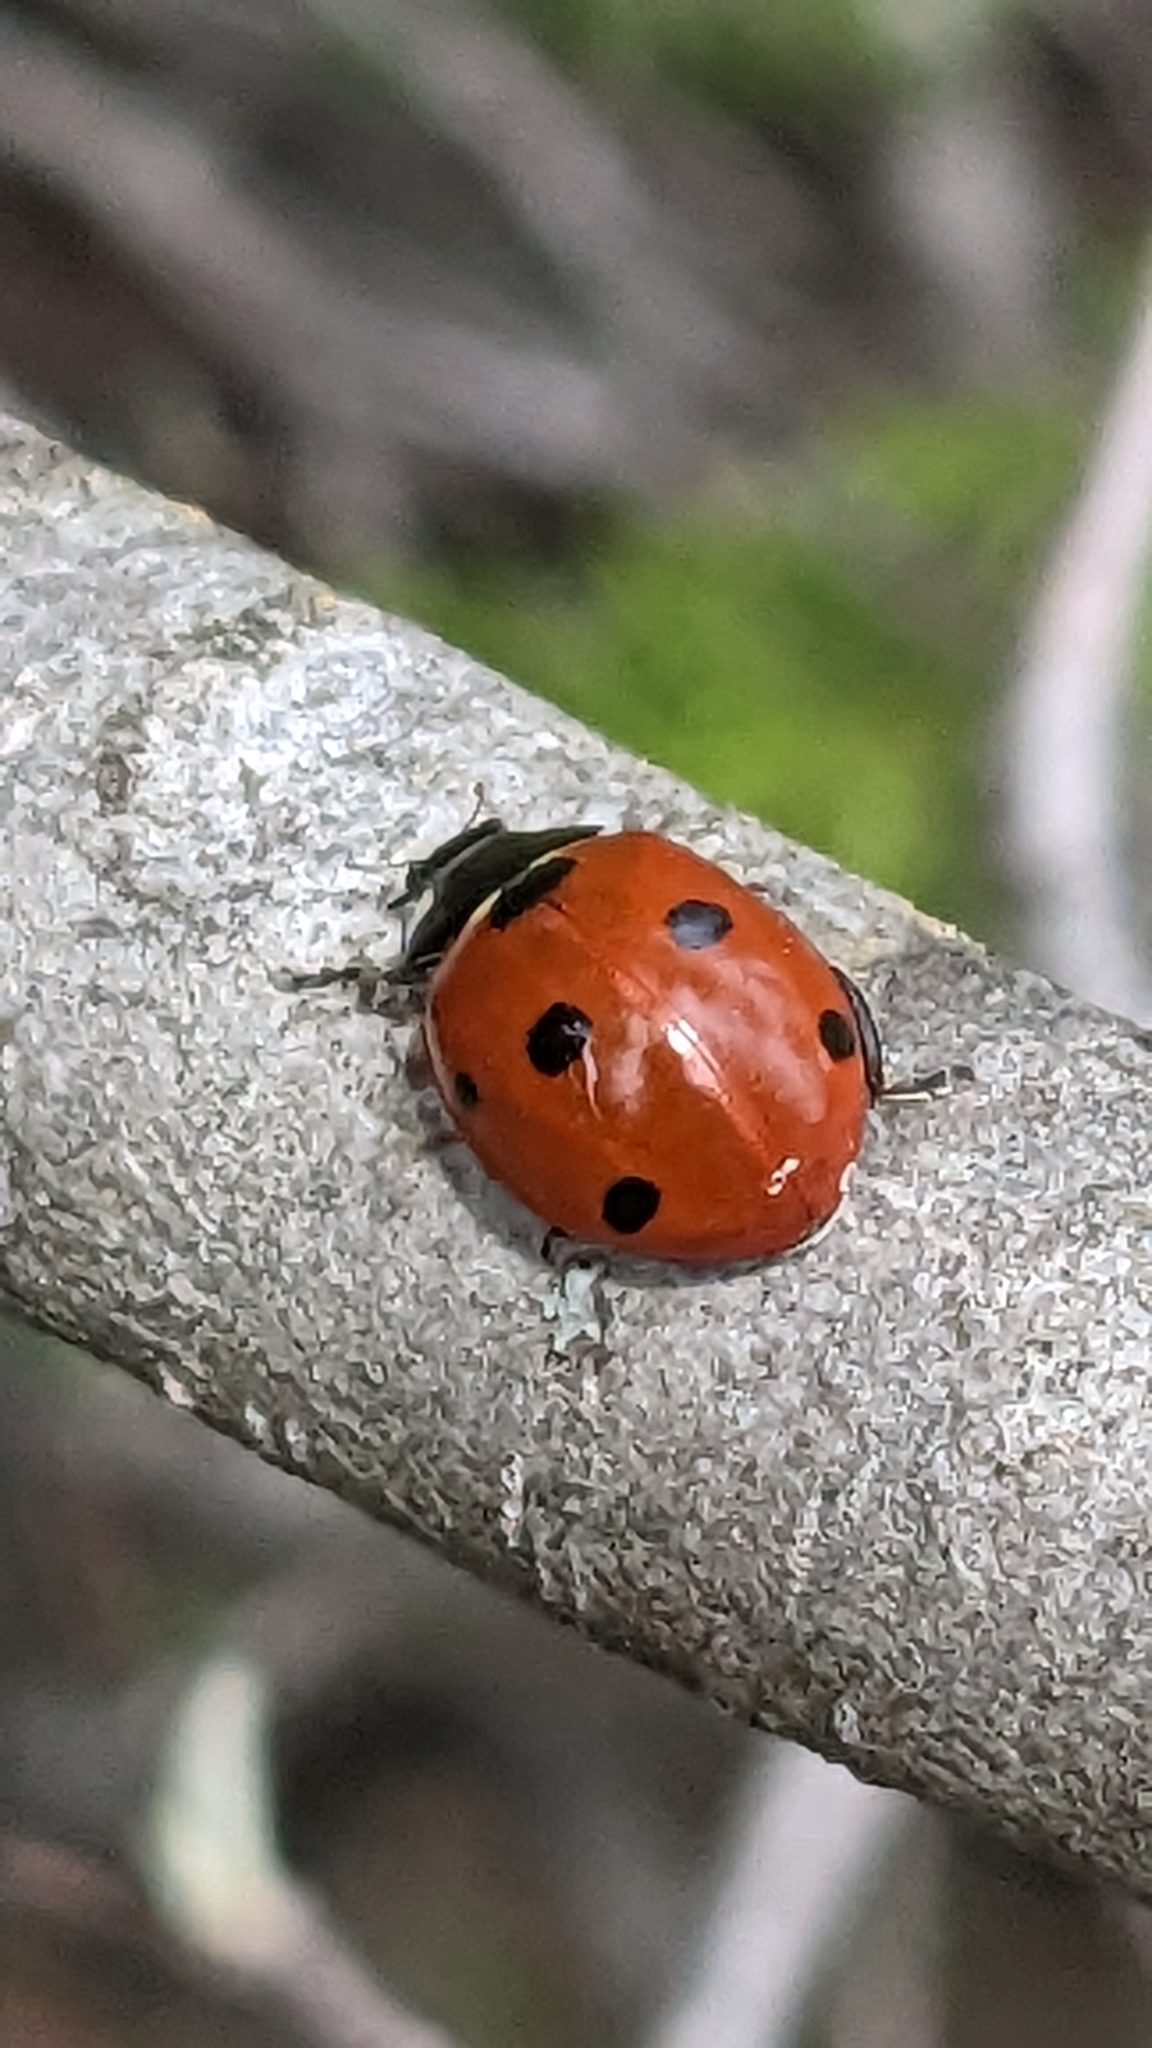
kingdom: Animalia
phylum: Arthropoda
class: Insecta
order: Coleoptera
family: Coccinellidae
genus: Coccinella
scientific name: Coccinella septempunctata
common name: Sevenspotted lady beetle
